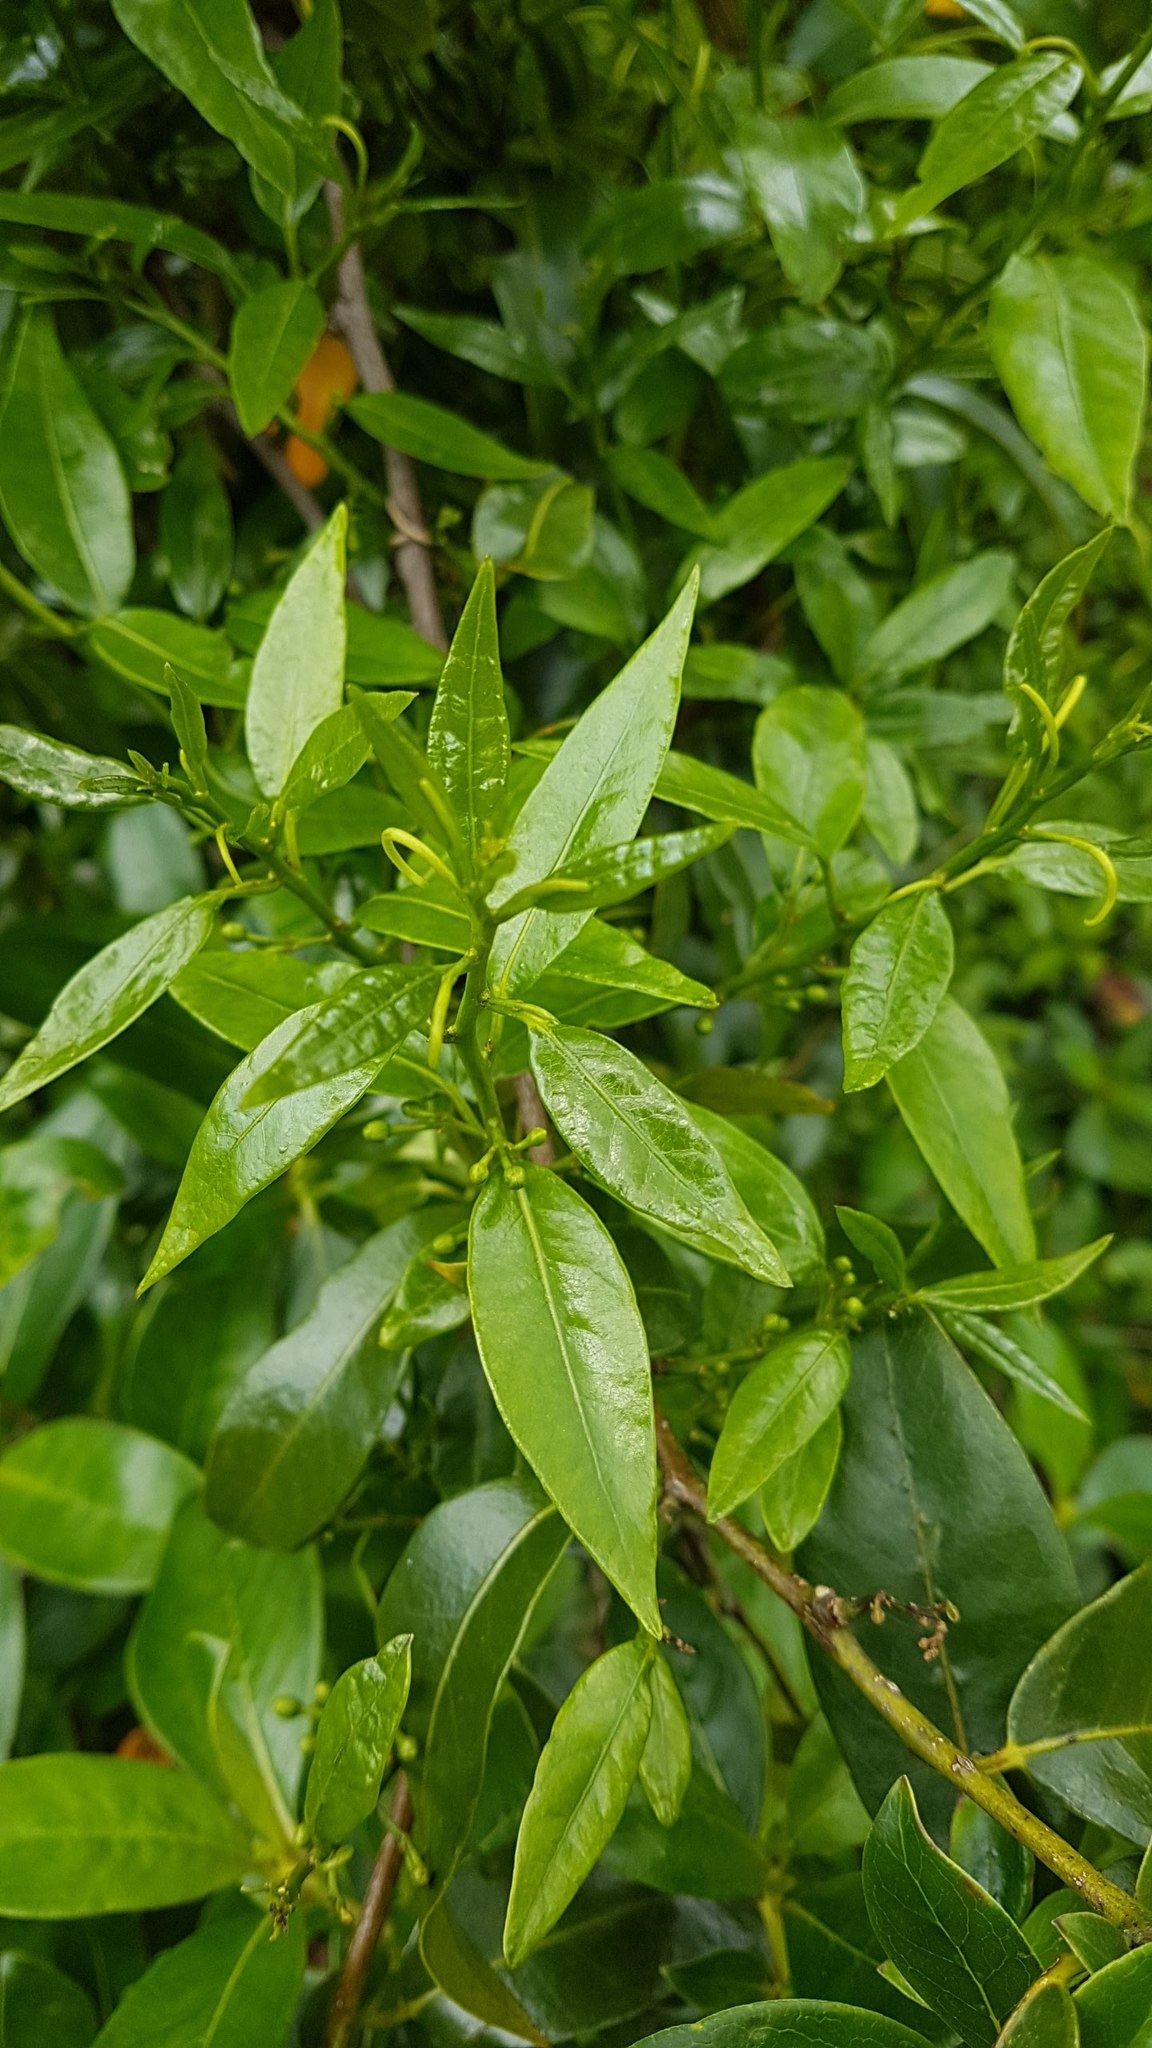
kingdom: Plantae
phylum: Tracheophyta
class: Magnoliopsida
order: Malpighiales
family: Passifloraceae
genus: Passiflora
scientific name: Passiflora tetrandra
